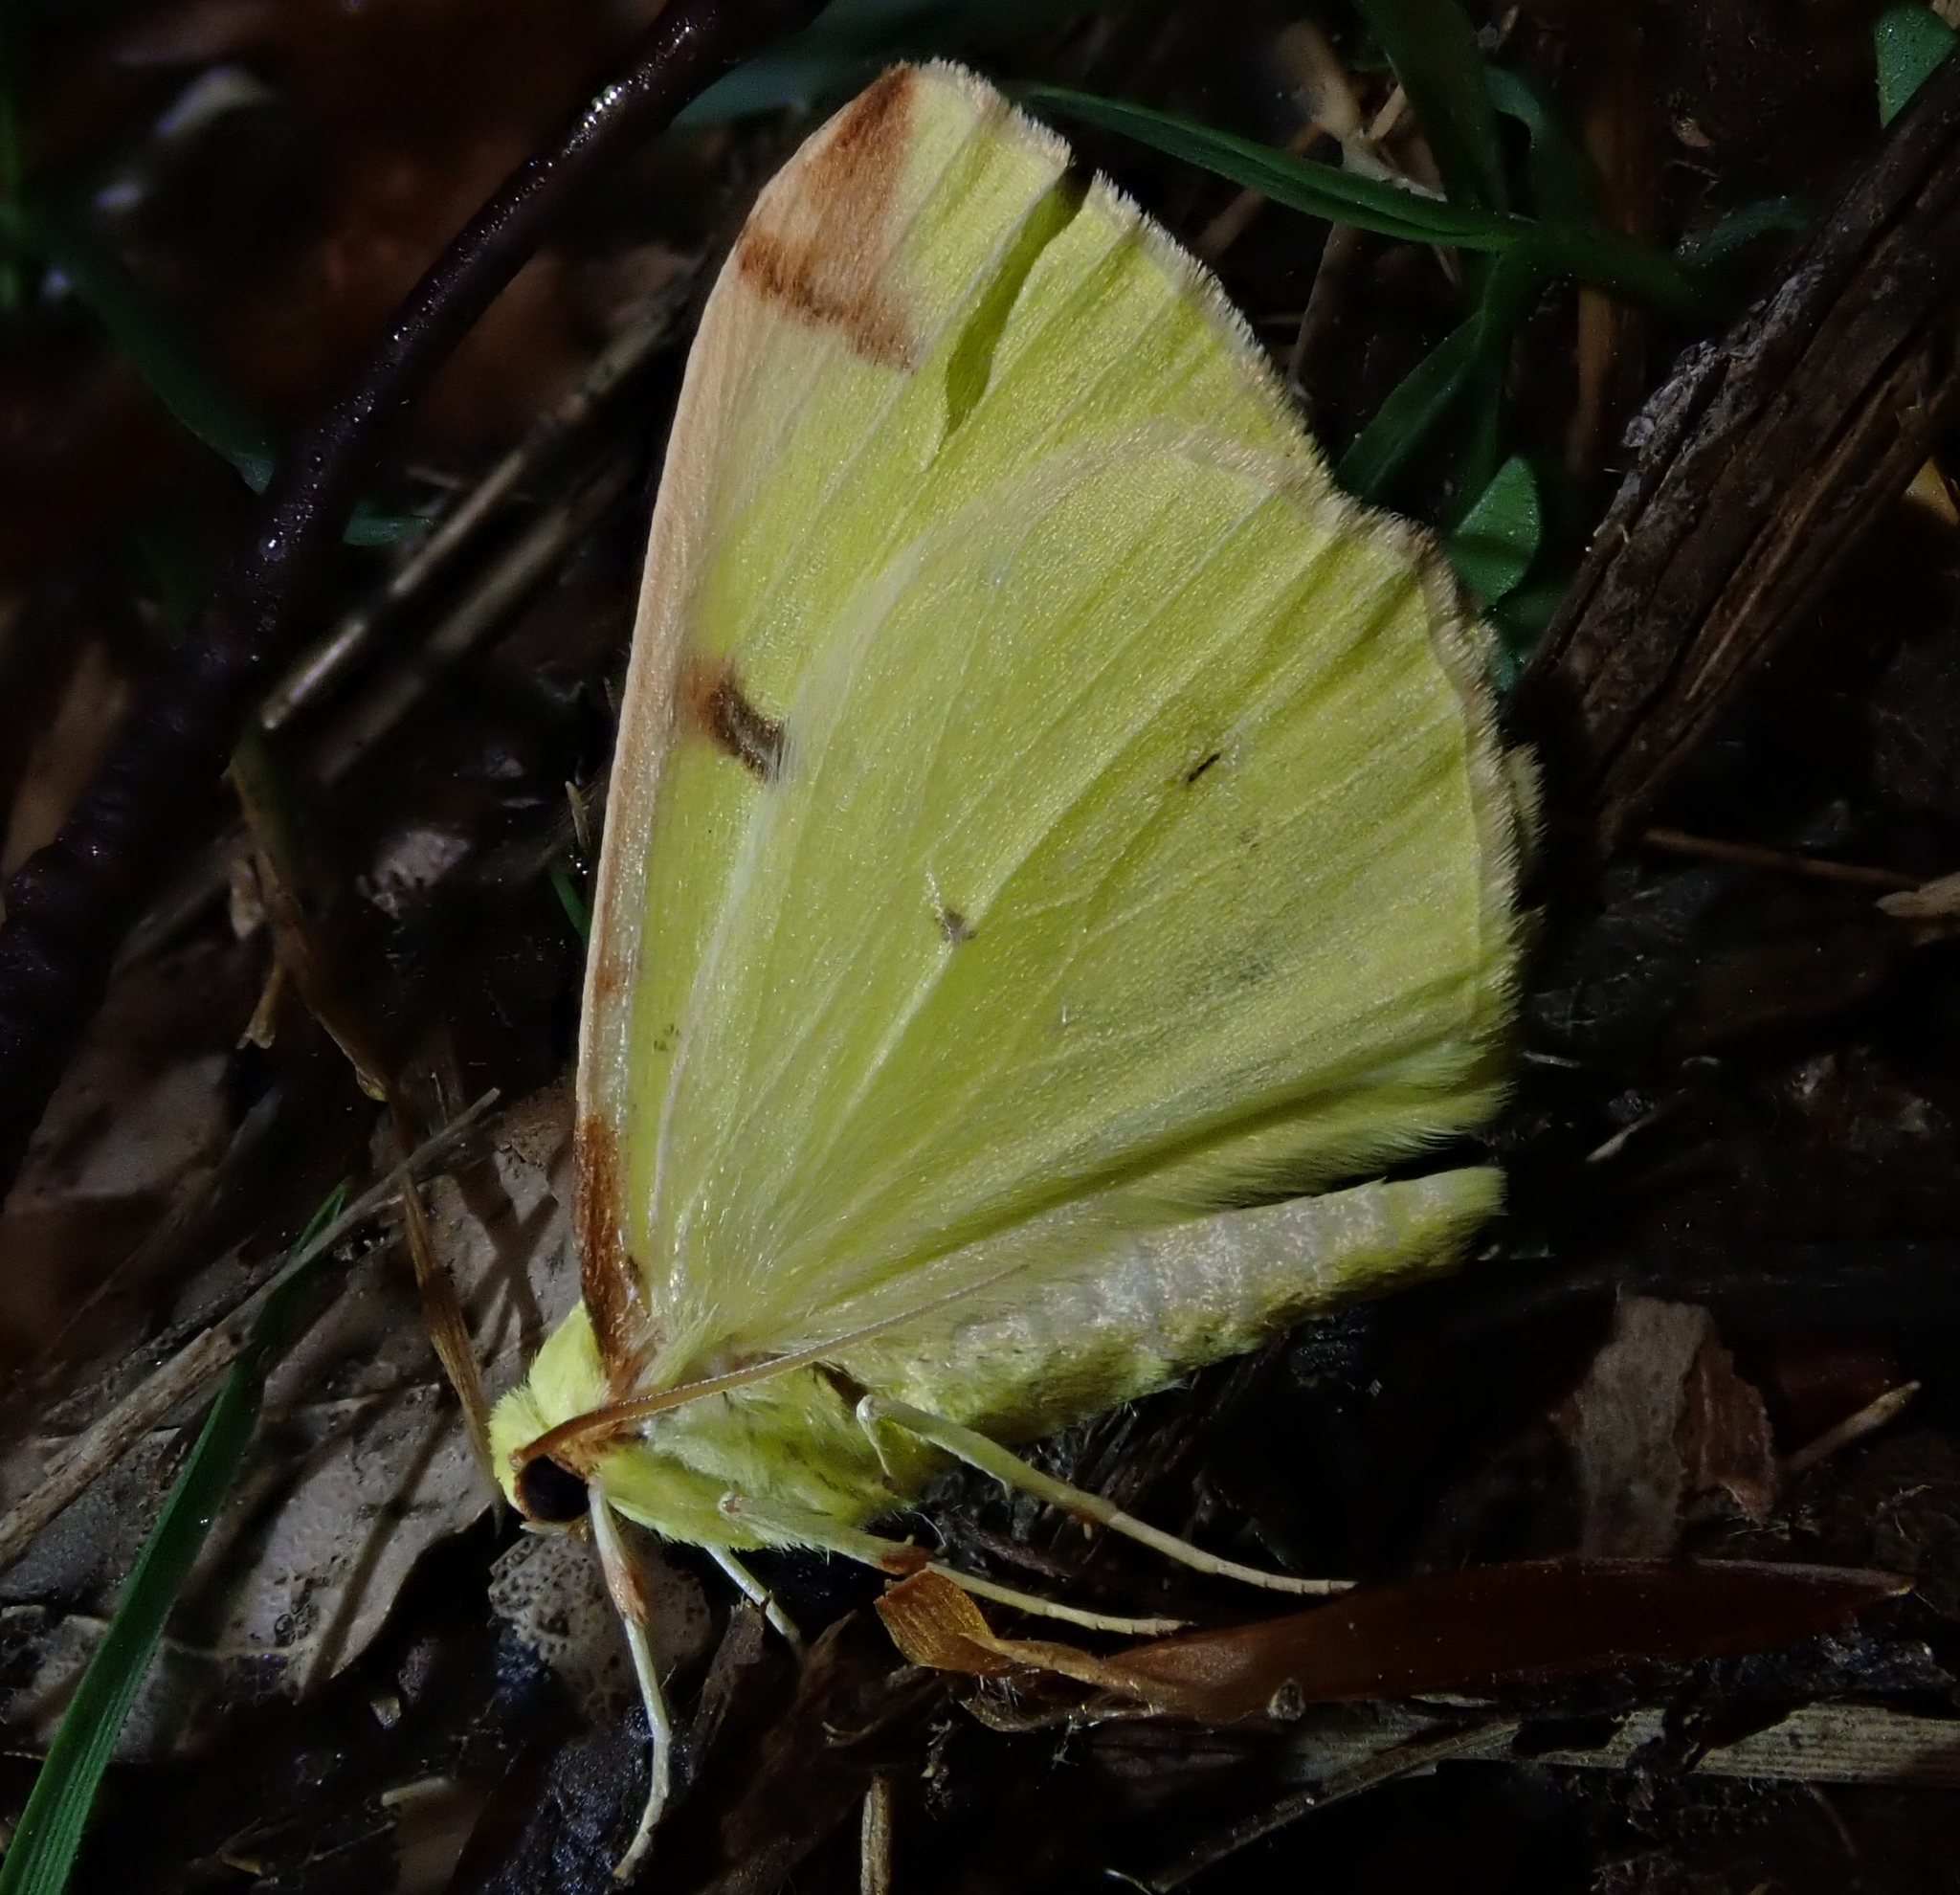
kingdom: Animalia
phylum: Arthropoda
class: Insecta
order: Lepidoptera
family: Geometridae
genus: Opisthograptis
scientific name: Opisthograptis luteolata
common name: Brimstone moth
